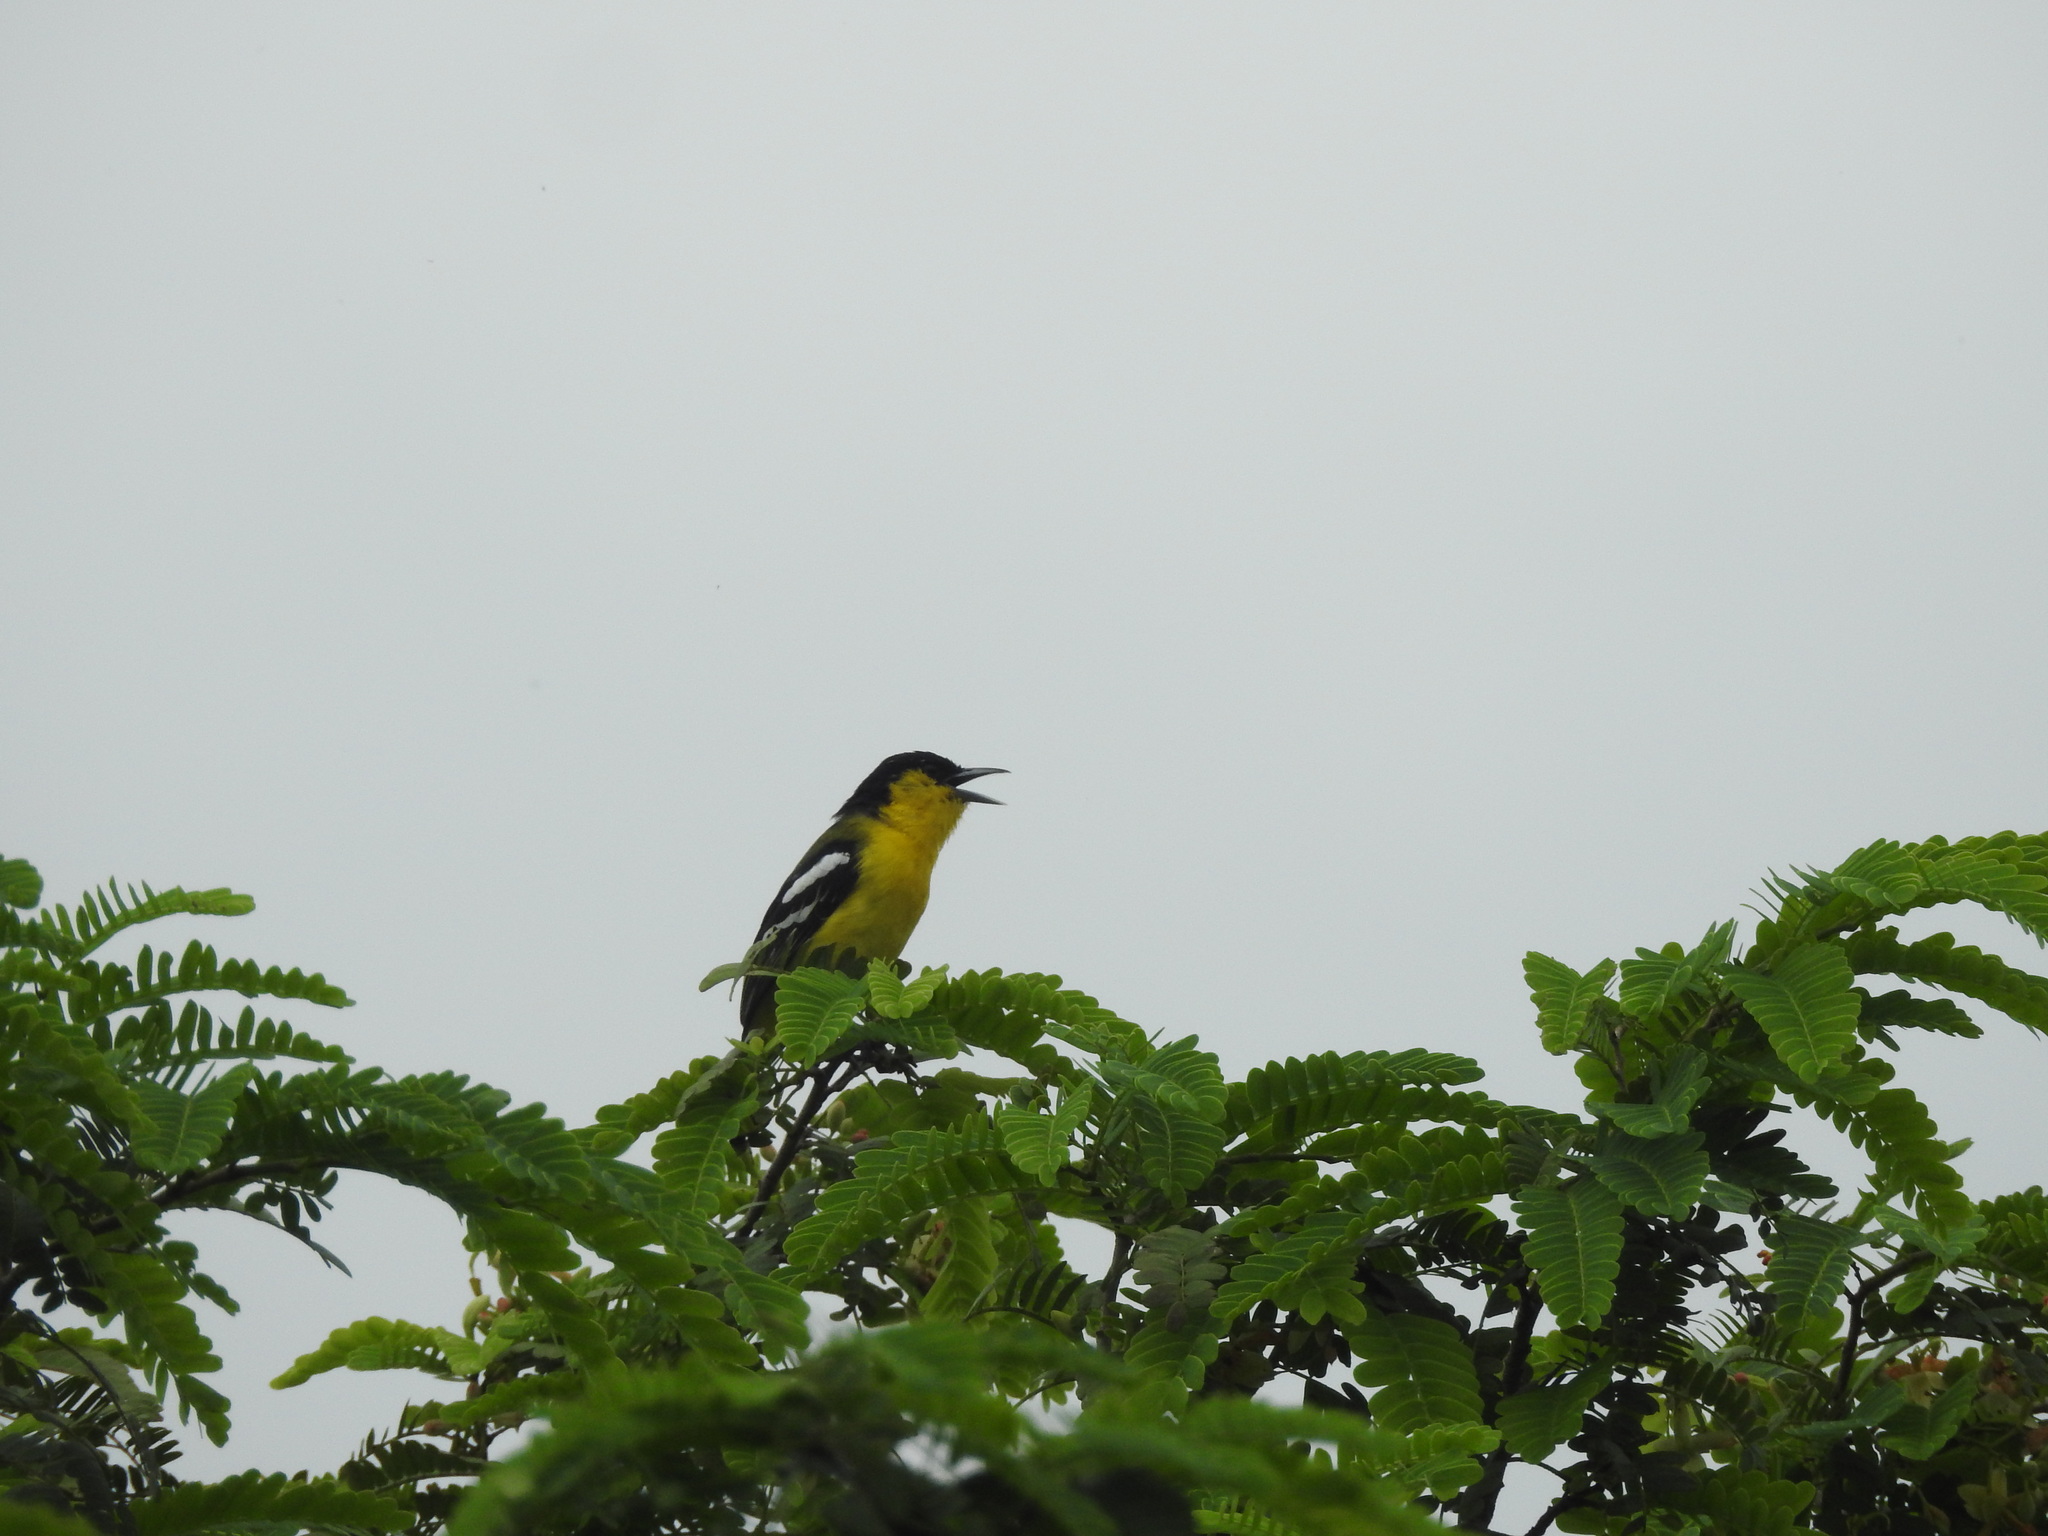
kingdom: Animalia
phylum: Chordata
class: Aves
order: Passeriformes
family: Aegithinidae
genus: Aegithina
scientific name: Aegithina tiphia
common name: Common iora
